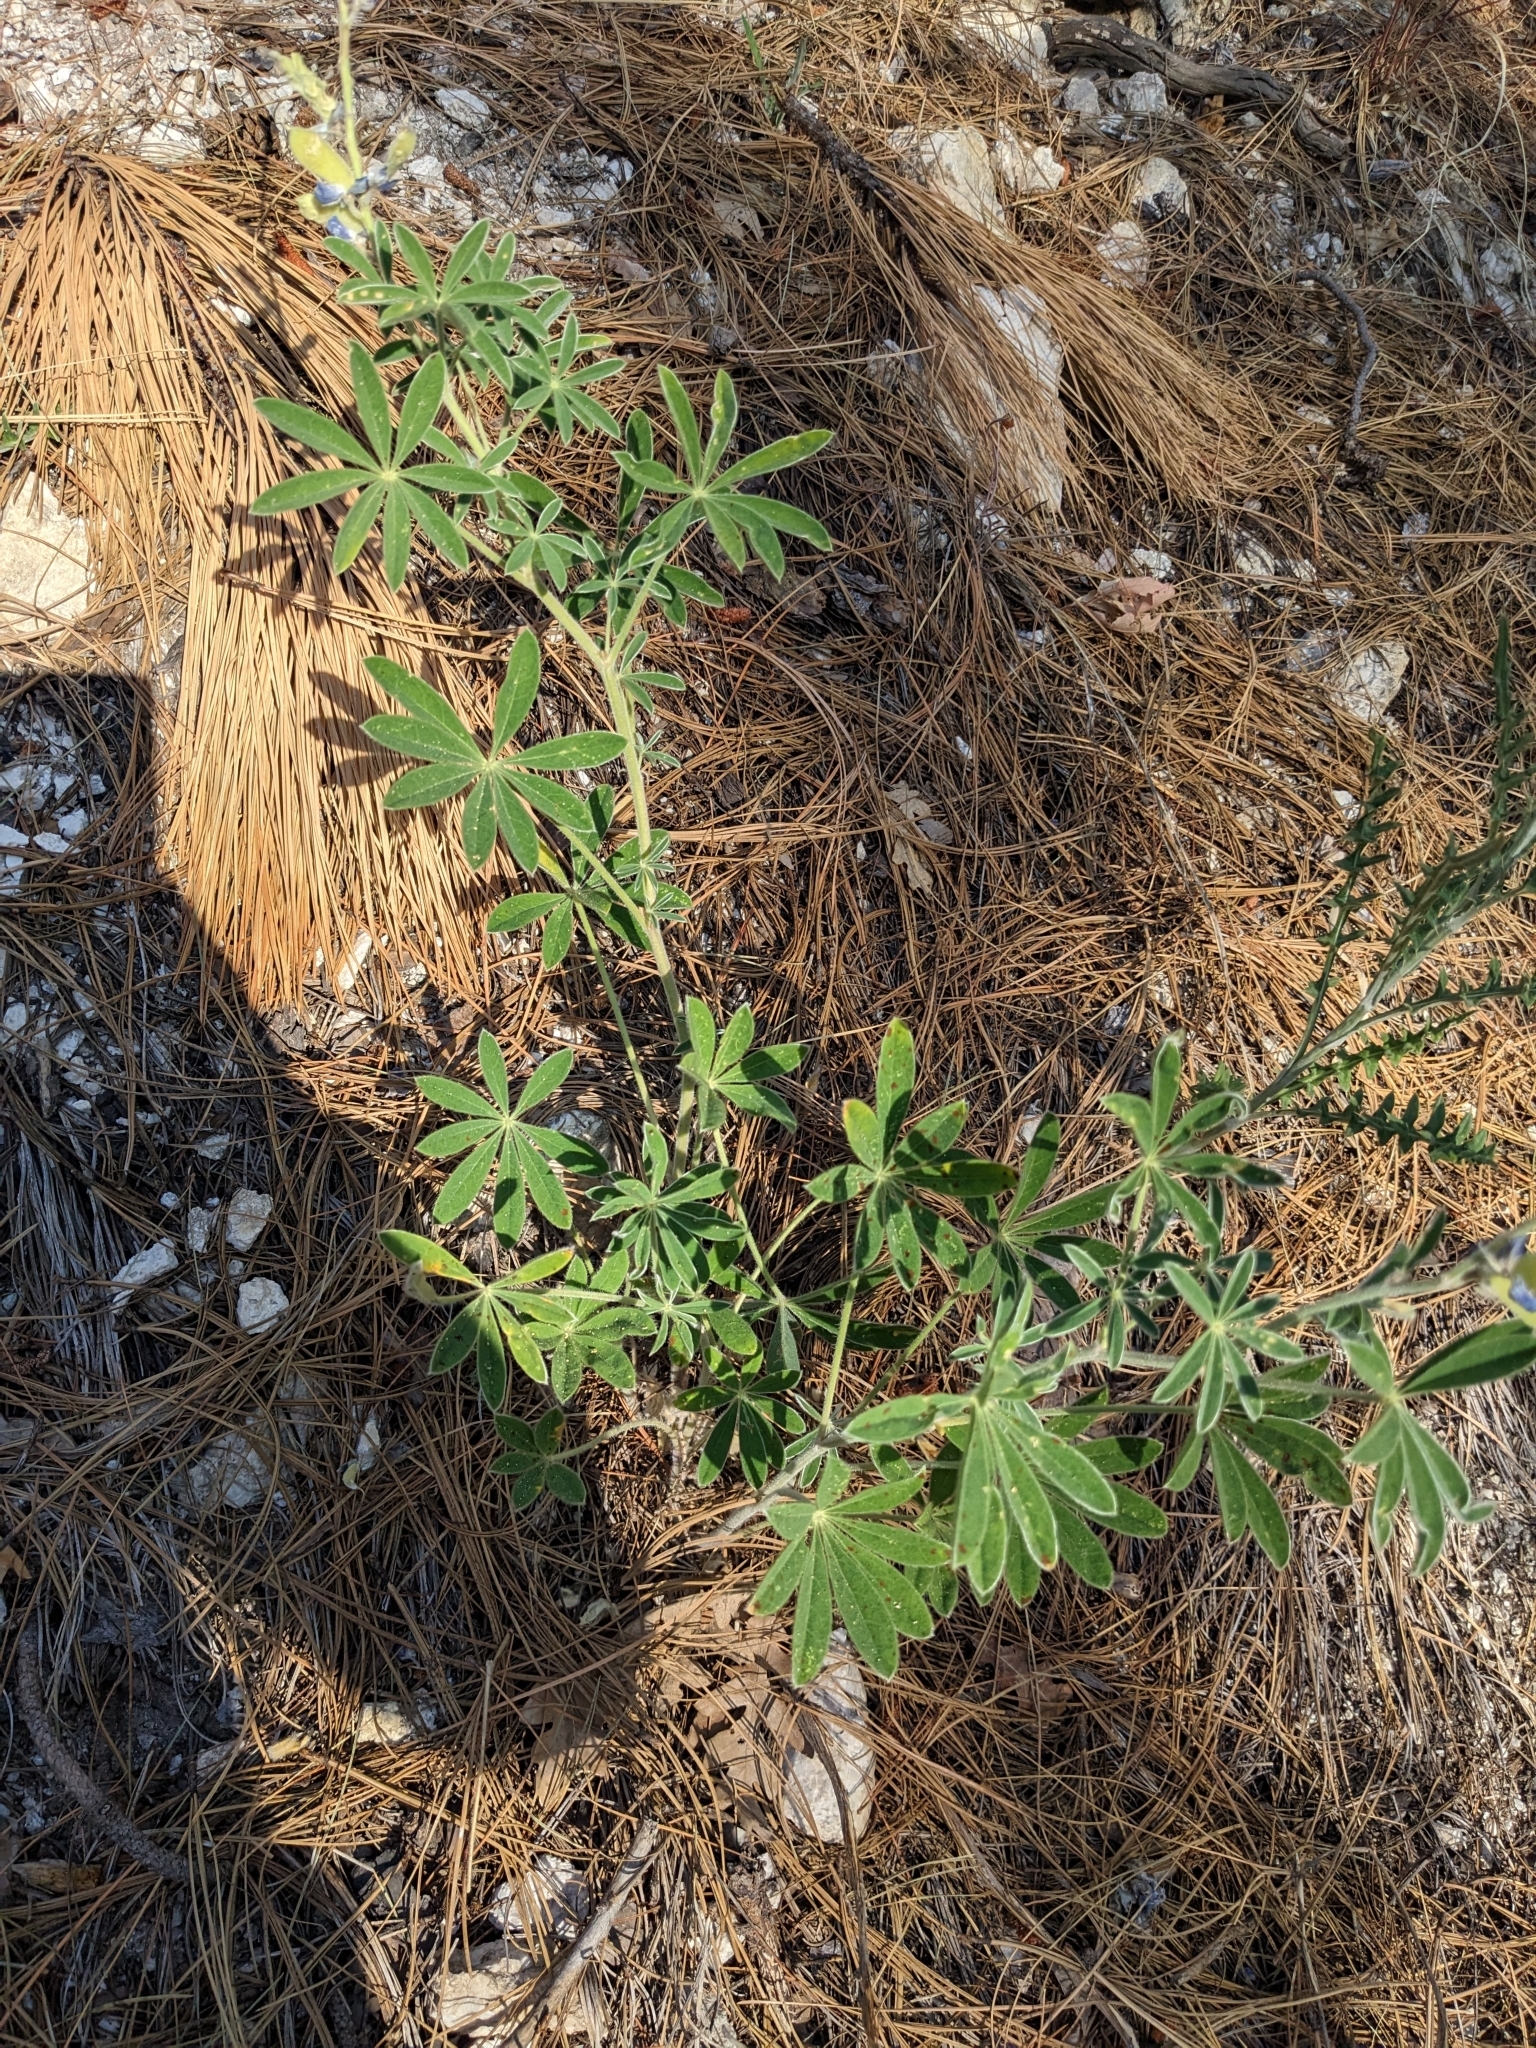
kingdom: Plantae
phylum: Tracheophyta
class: Magnoliopsida
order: Fabales
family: Fabaceae
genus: Lupinus
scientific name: Lupinus argenteus
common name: Silvery lupine
